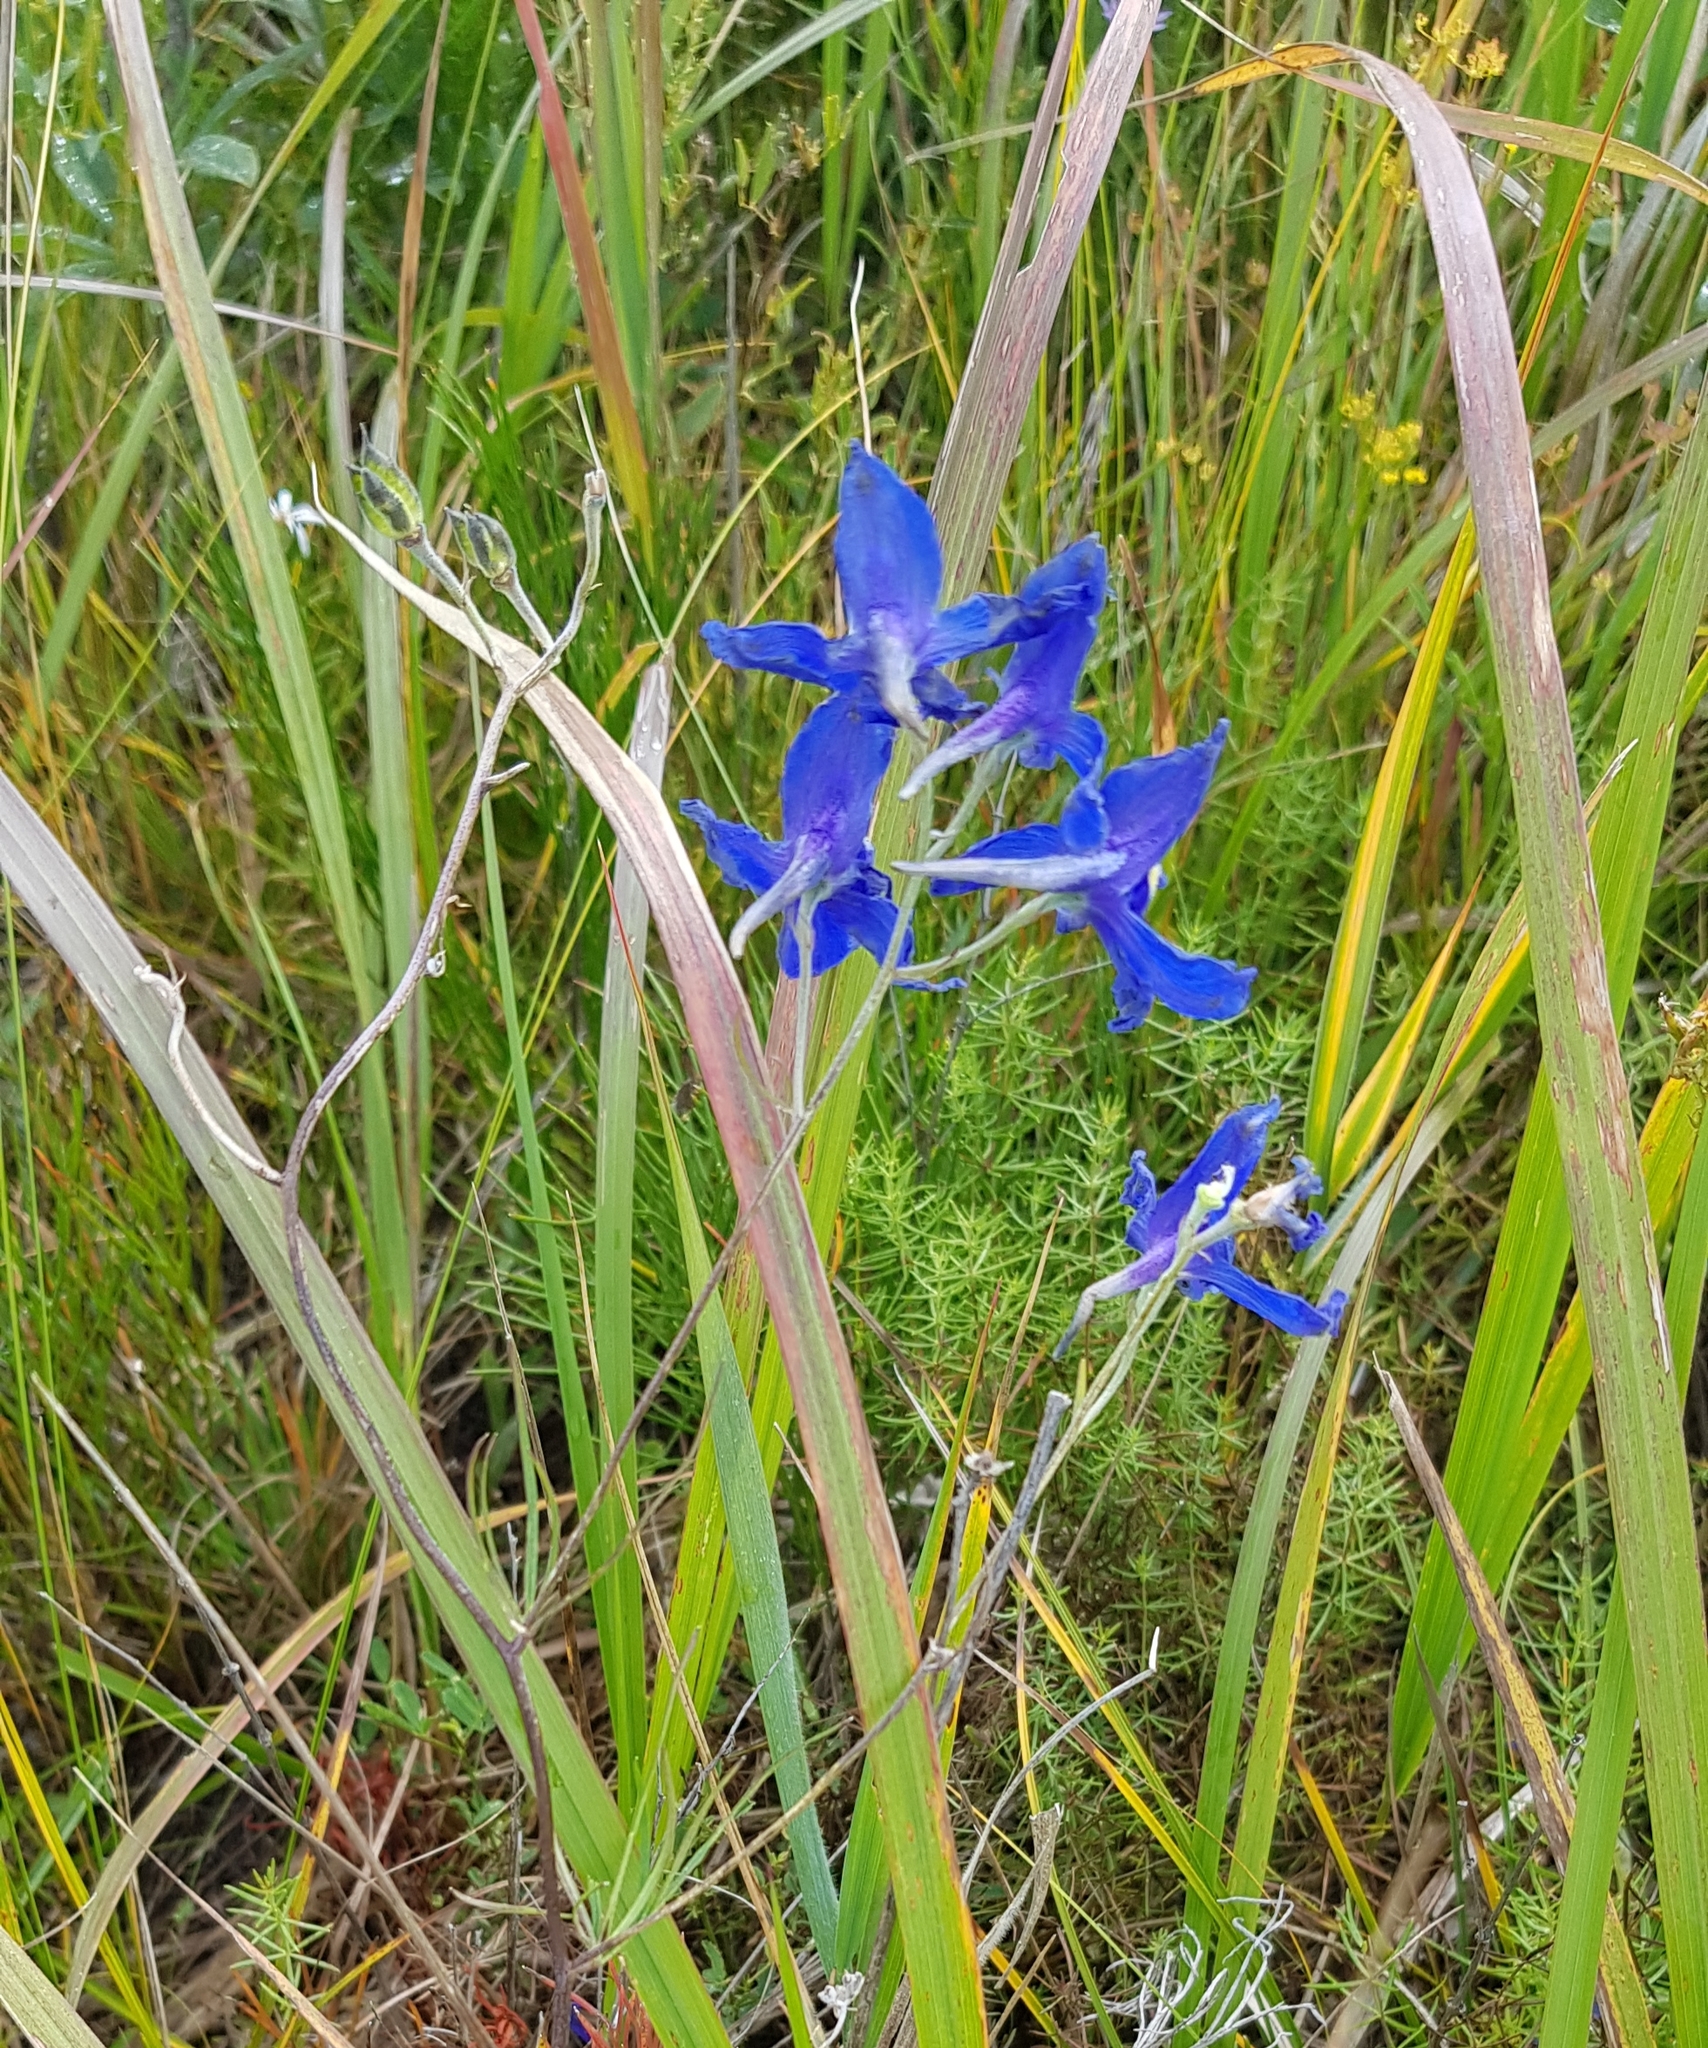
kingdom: Plantae
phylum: Tracheophyta
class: Magnoliopsida
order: Ranunculales
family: Ranunculaceae
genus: Delphinium
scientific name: Delphinium grandiflorum
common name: Siberian larkspur
